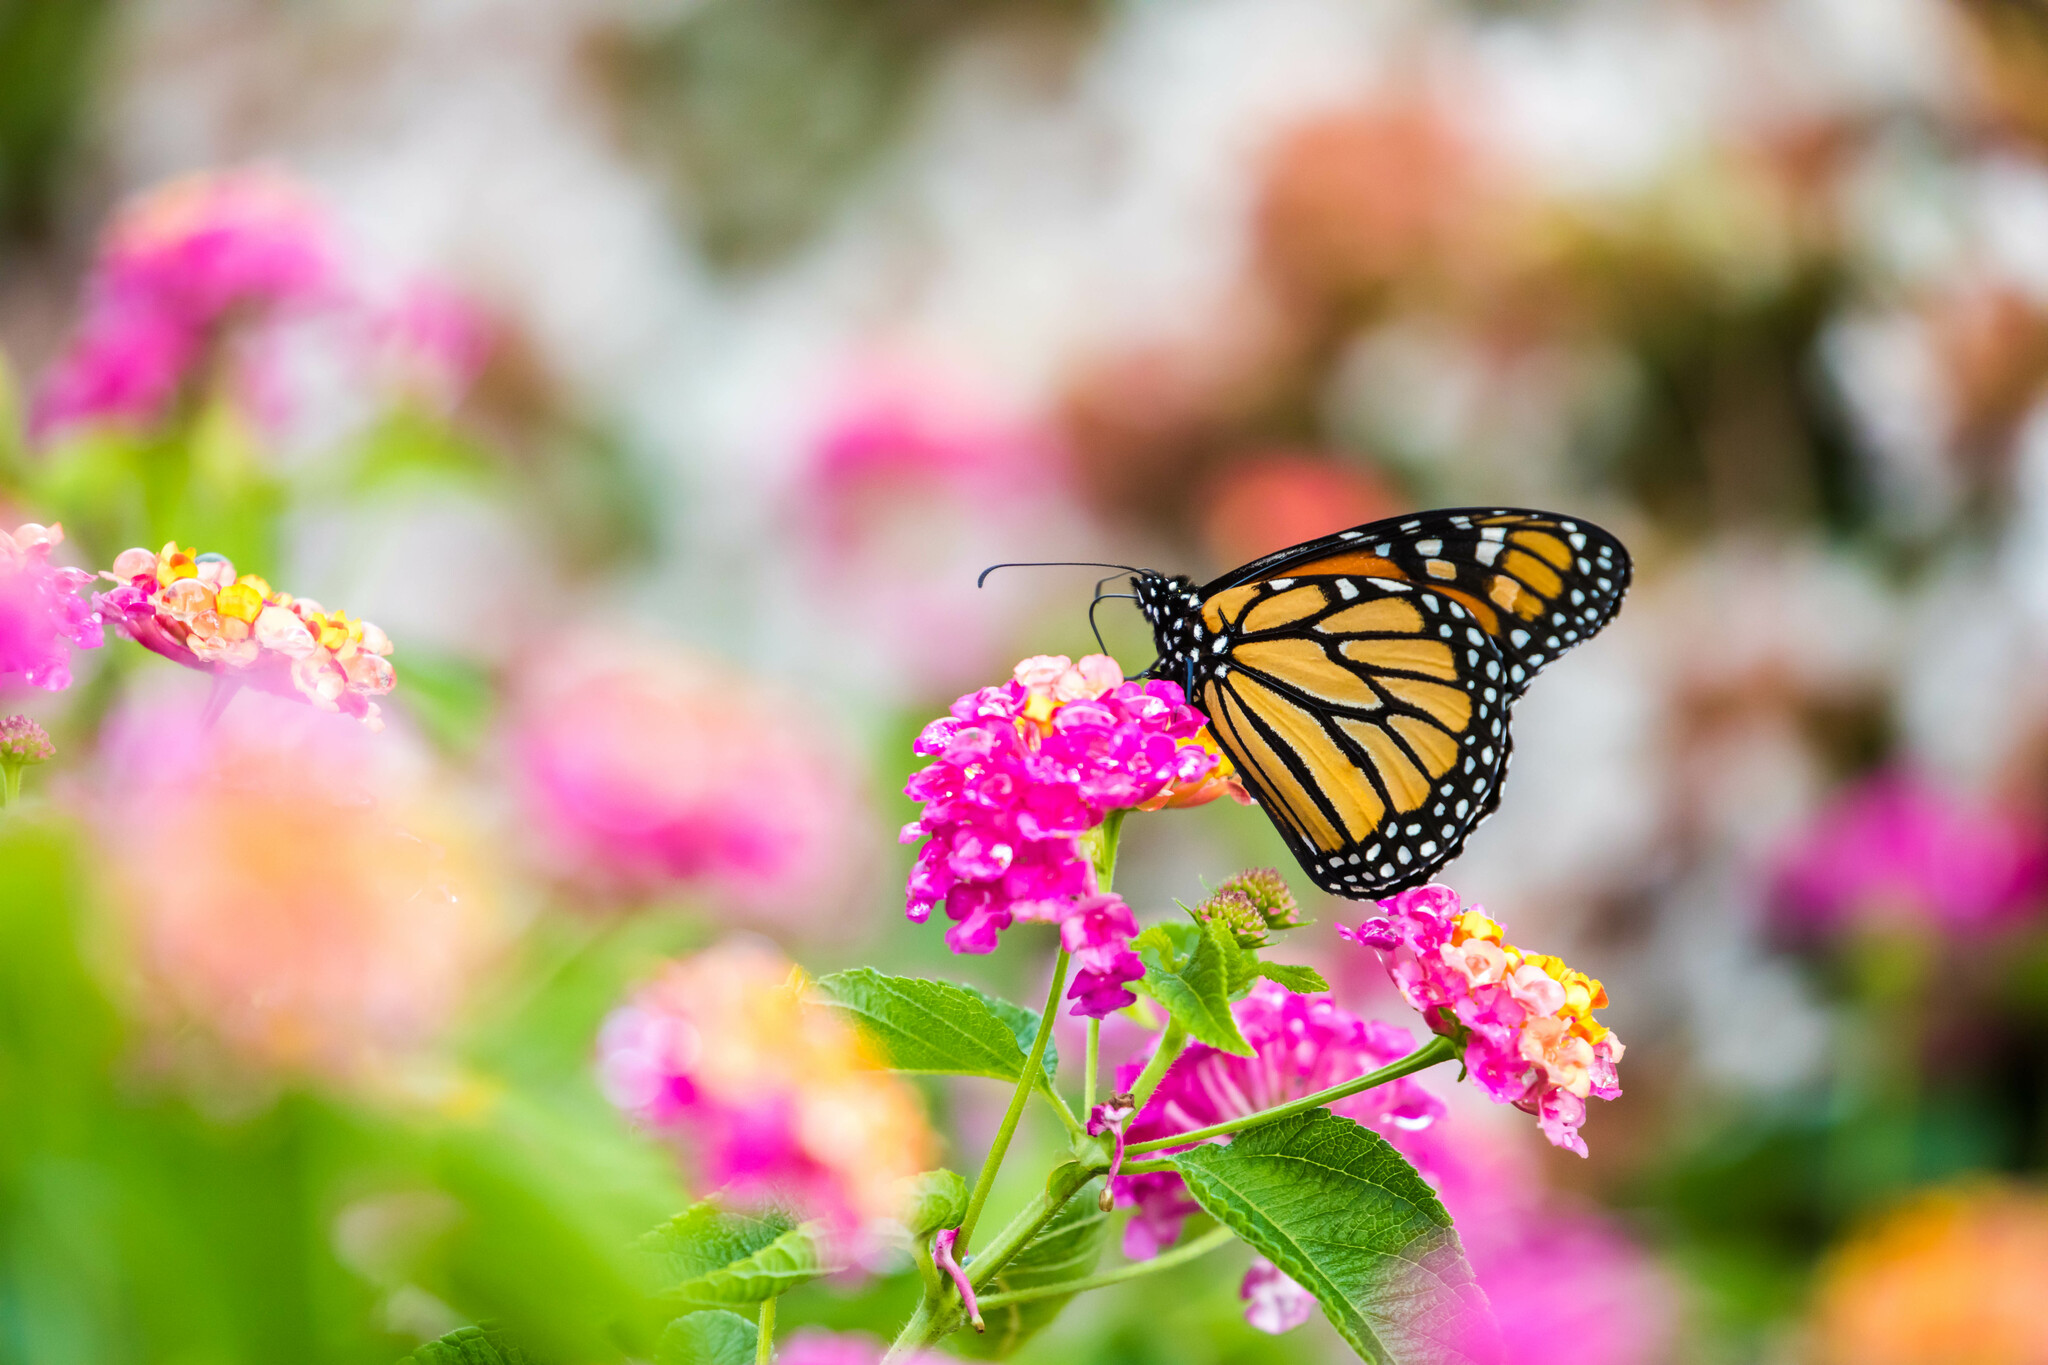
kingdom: Animalia
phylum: Arthropoda
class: Insecta
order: Lepidoptera
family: Nymphalidae
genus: Danaus
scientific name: Danaus plexippus
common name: Monarch
